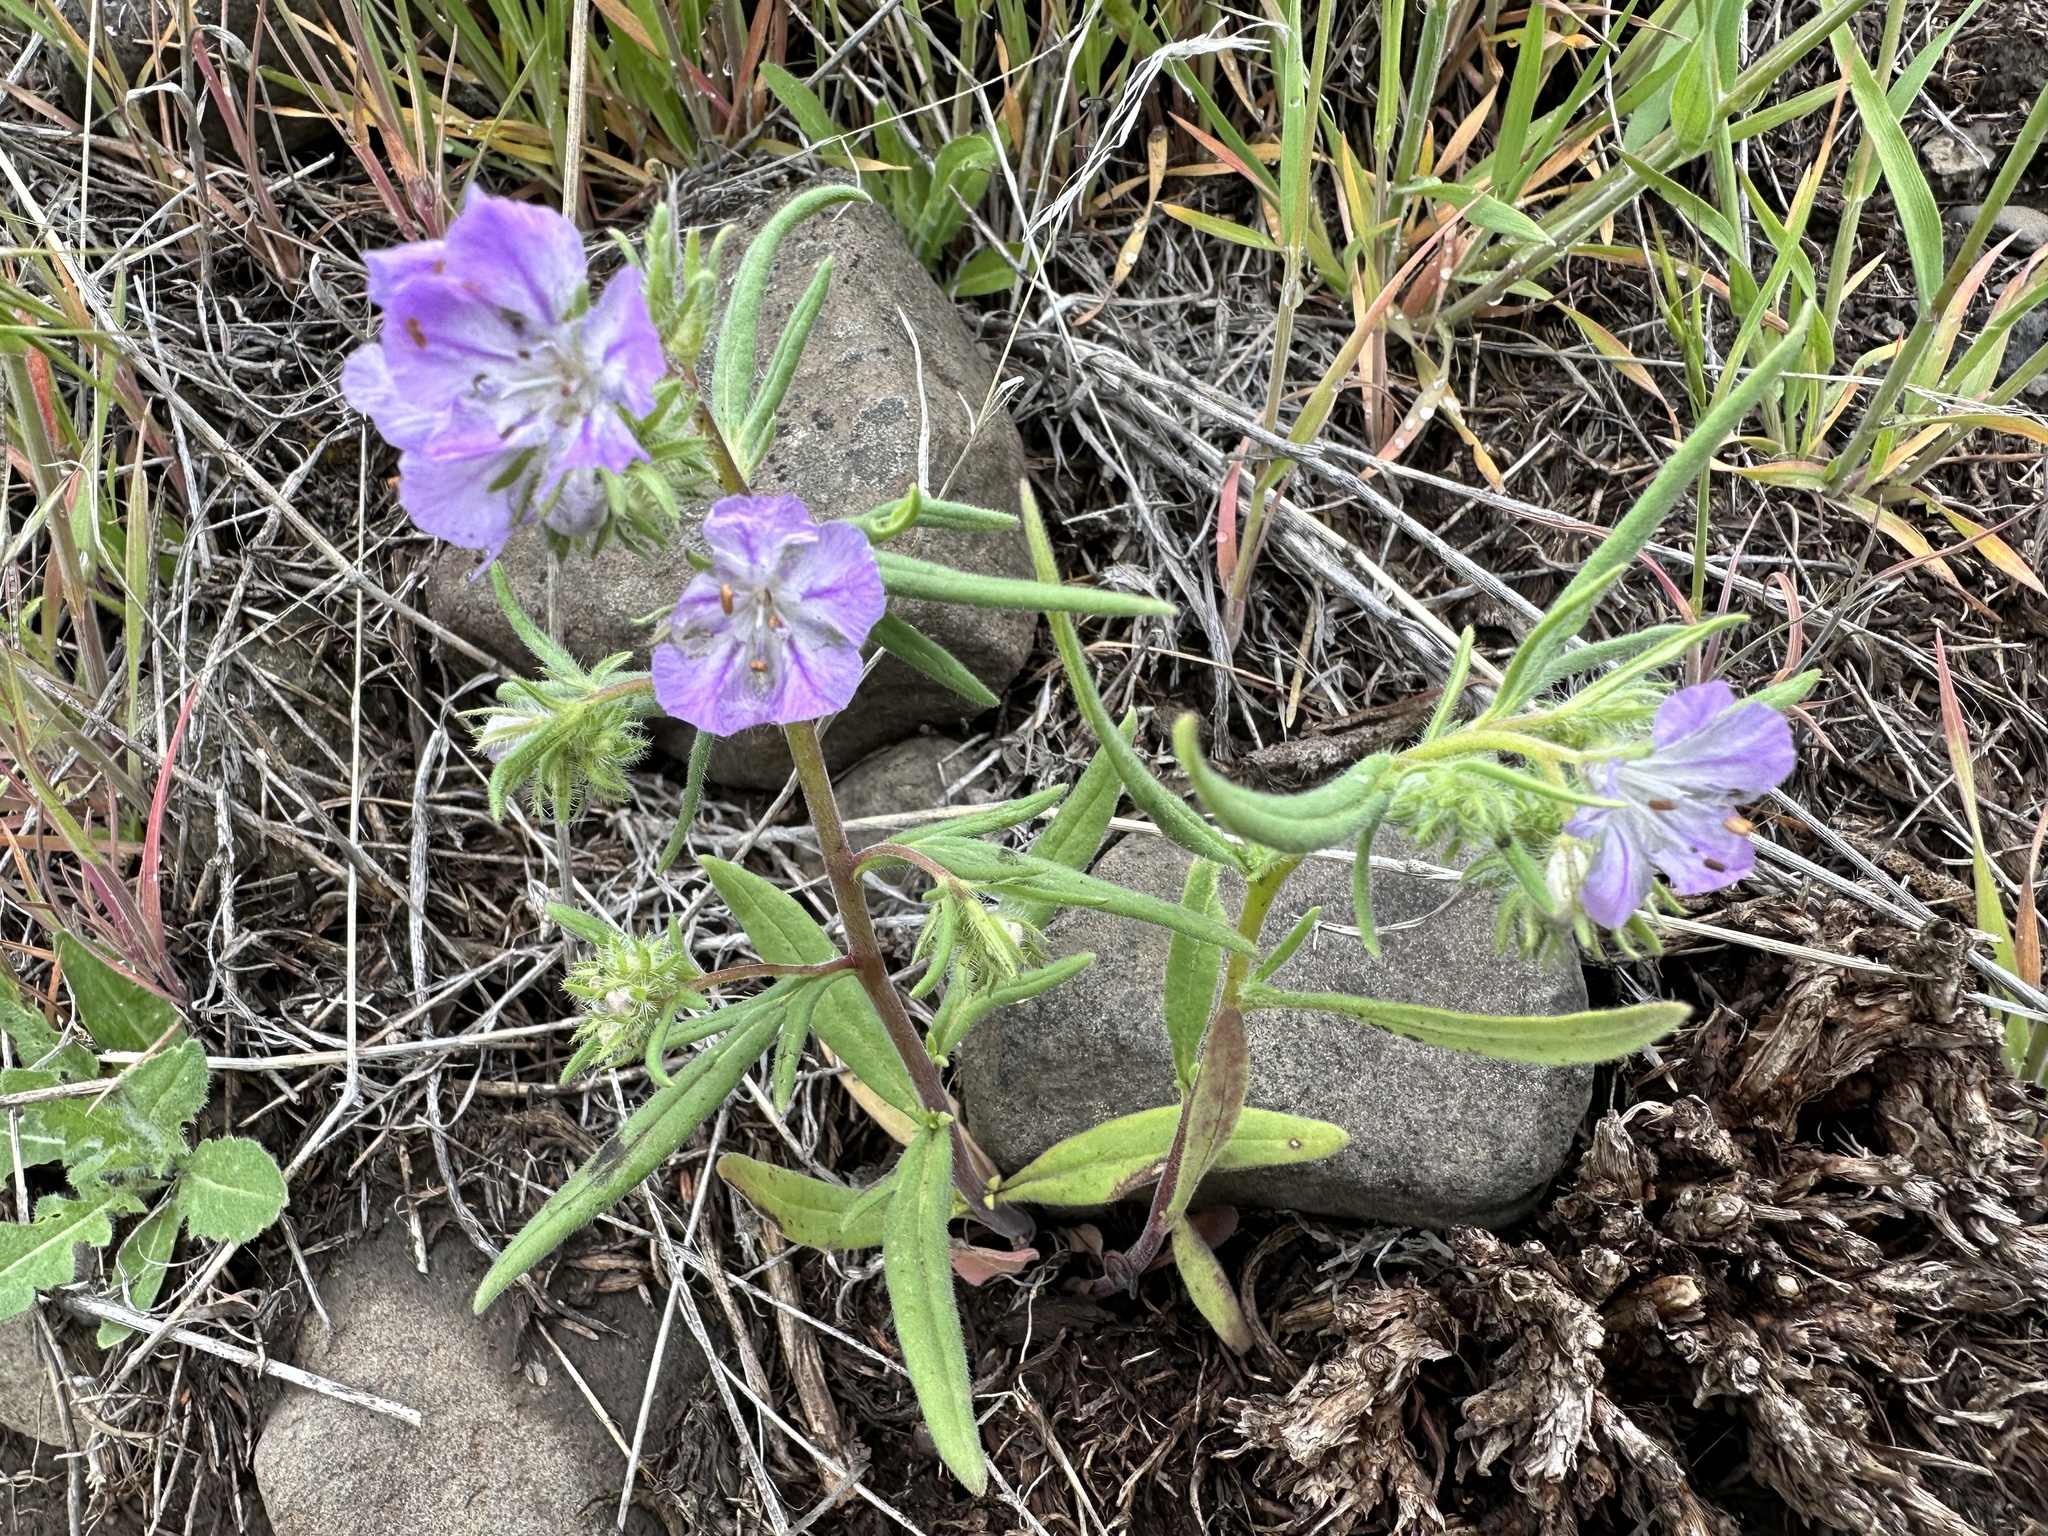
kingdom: Plantae
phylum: Tracheophyta
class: Magnoliopsida
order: Boraginales
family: Hydrophyllaceae
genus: Phacelia
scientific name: Phacelia linearis
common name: Linear-leaved phacelia
